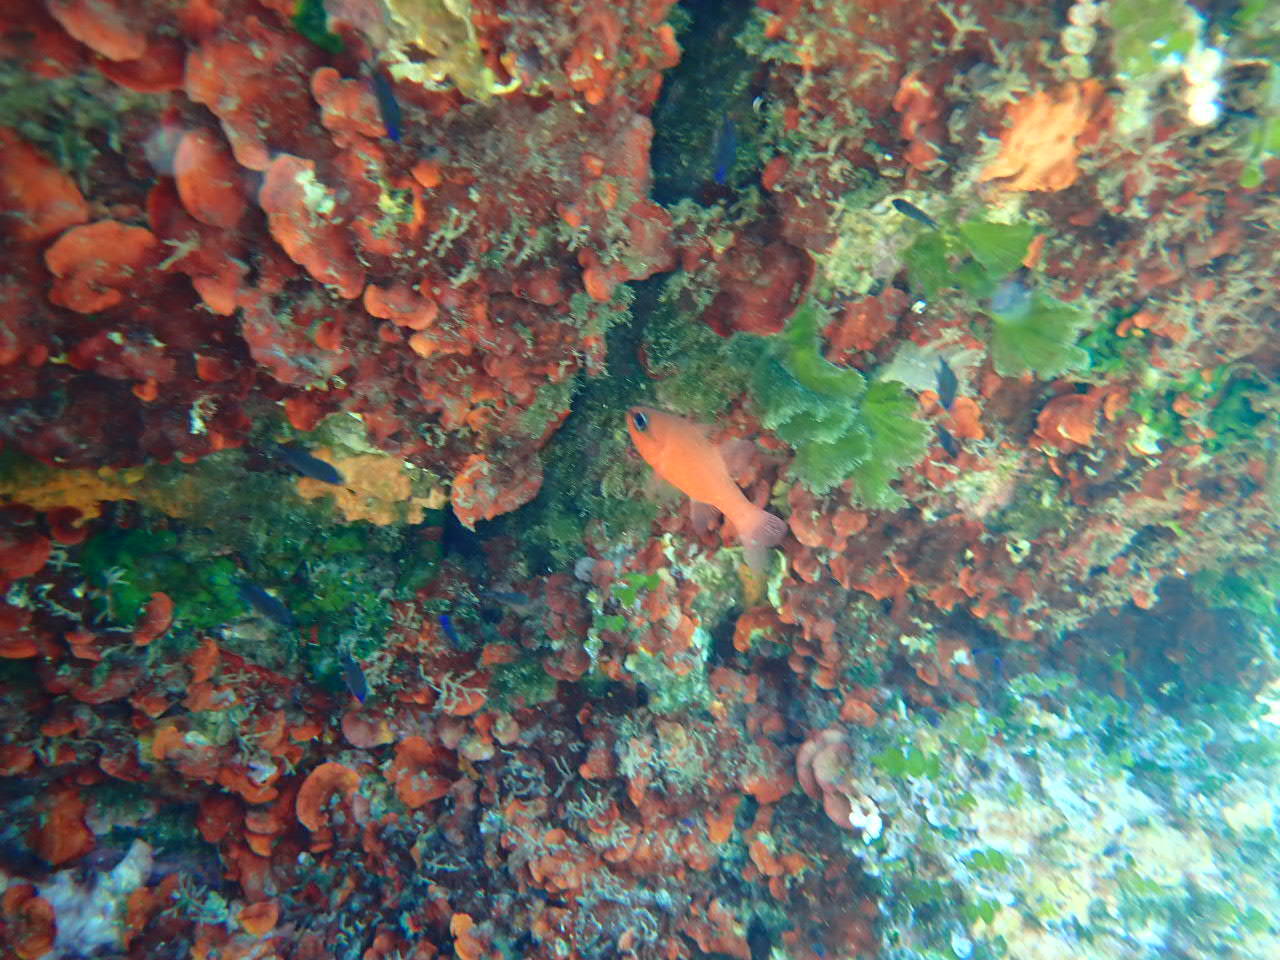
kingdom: Animalia
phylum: Chordata
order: Perciformes
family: Apogonidae
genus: Apogon
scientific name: Apogon imberbis
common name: Cardinal fish
